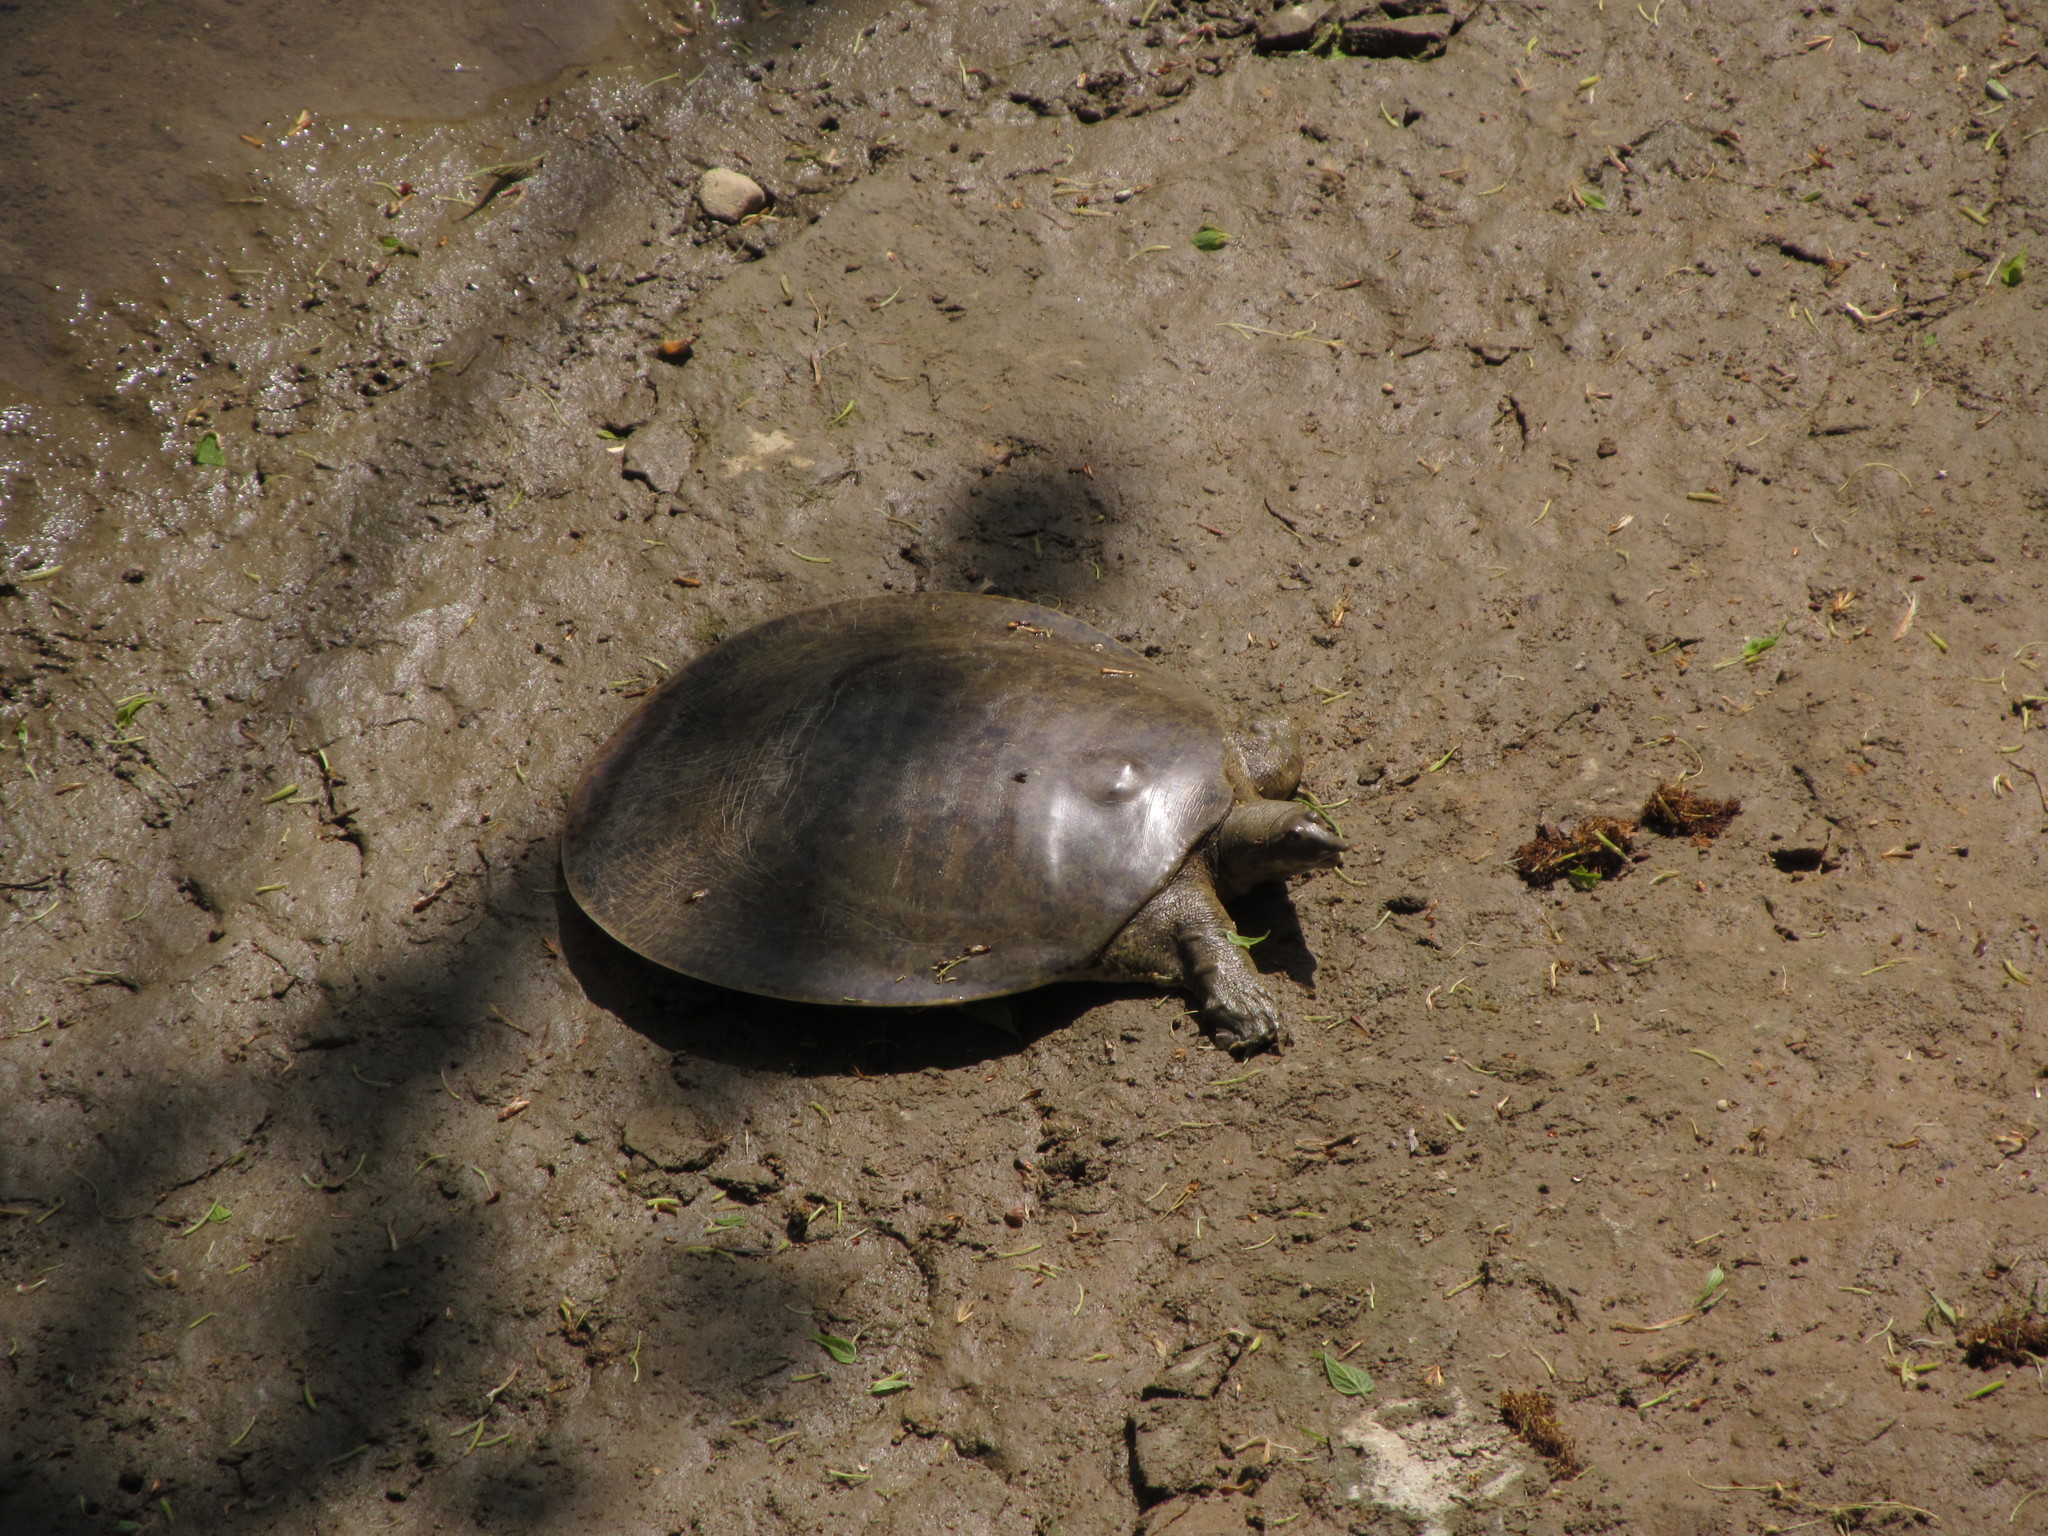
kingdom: Animalia
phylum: Chordata
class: Testudines
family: Trionychidae
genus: Apalone
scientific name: Apalone mutica
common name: Smooth softshell turtle
